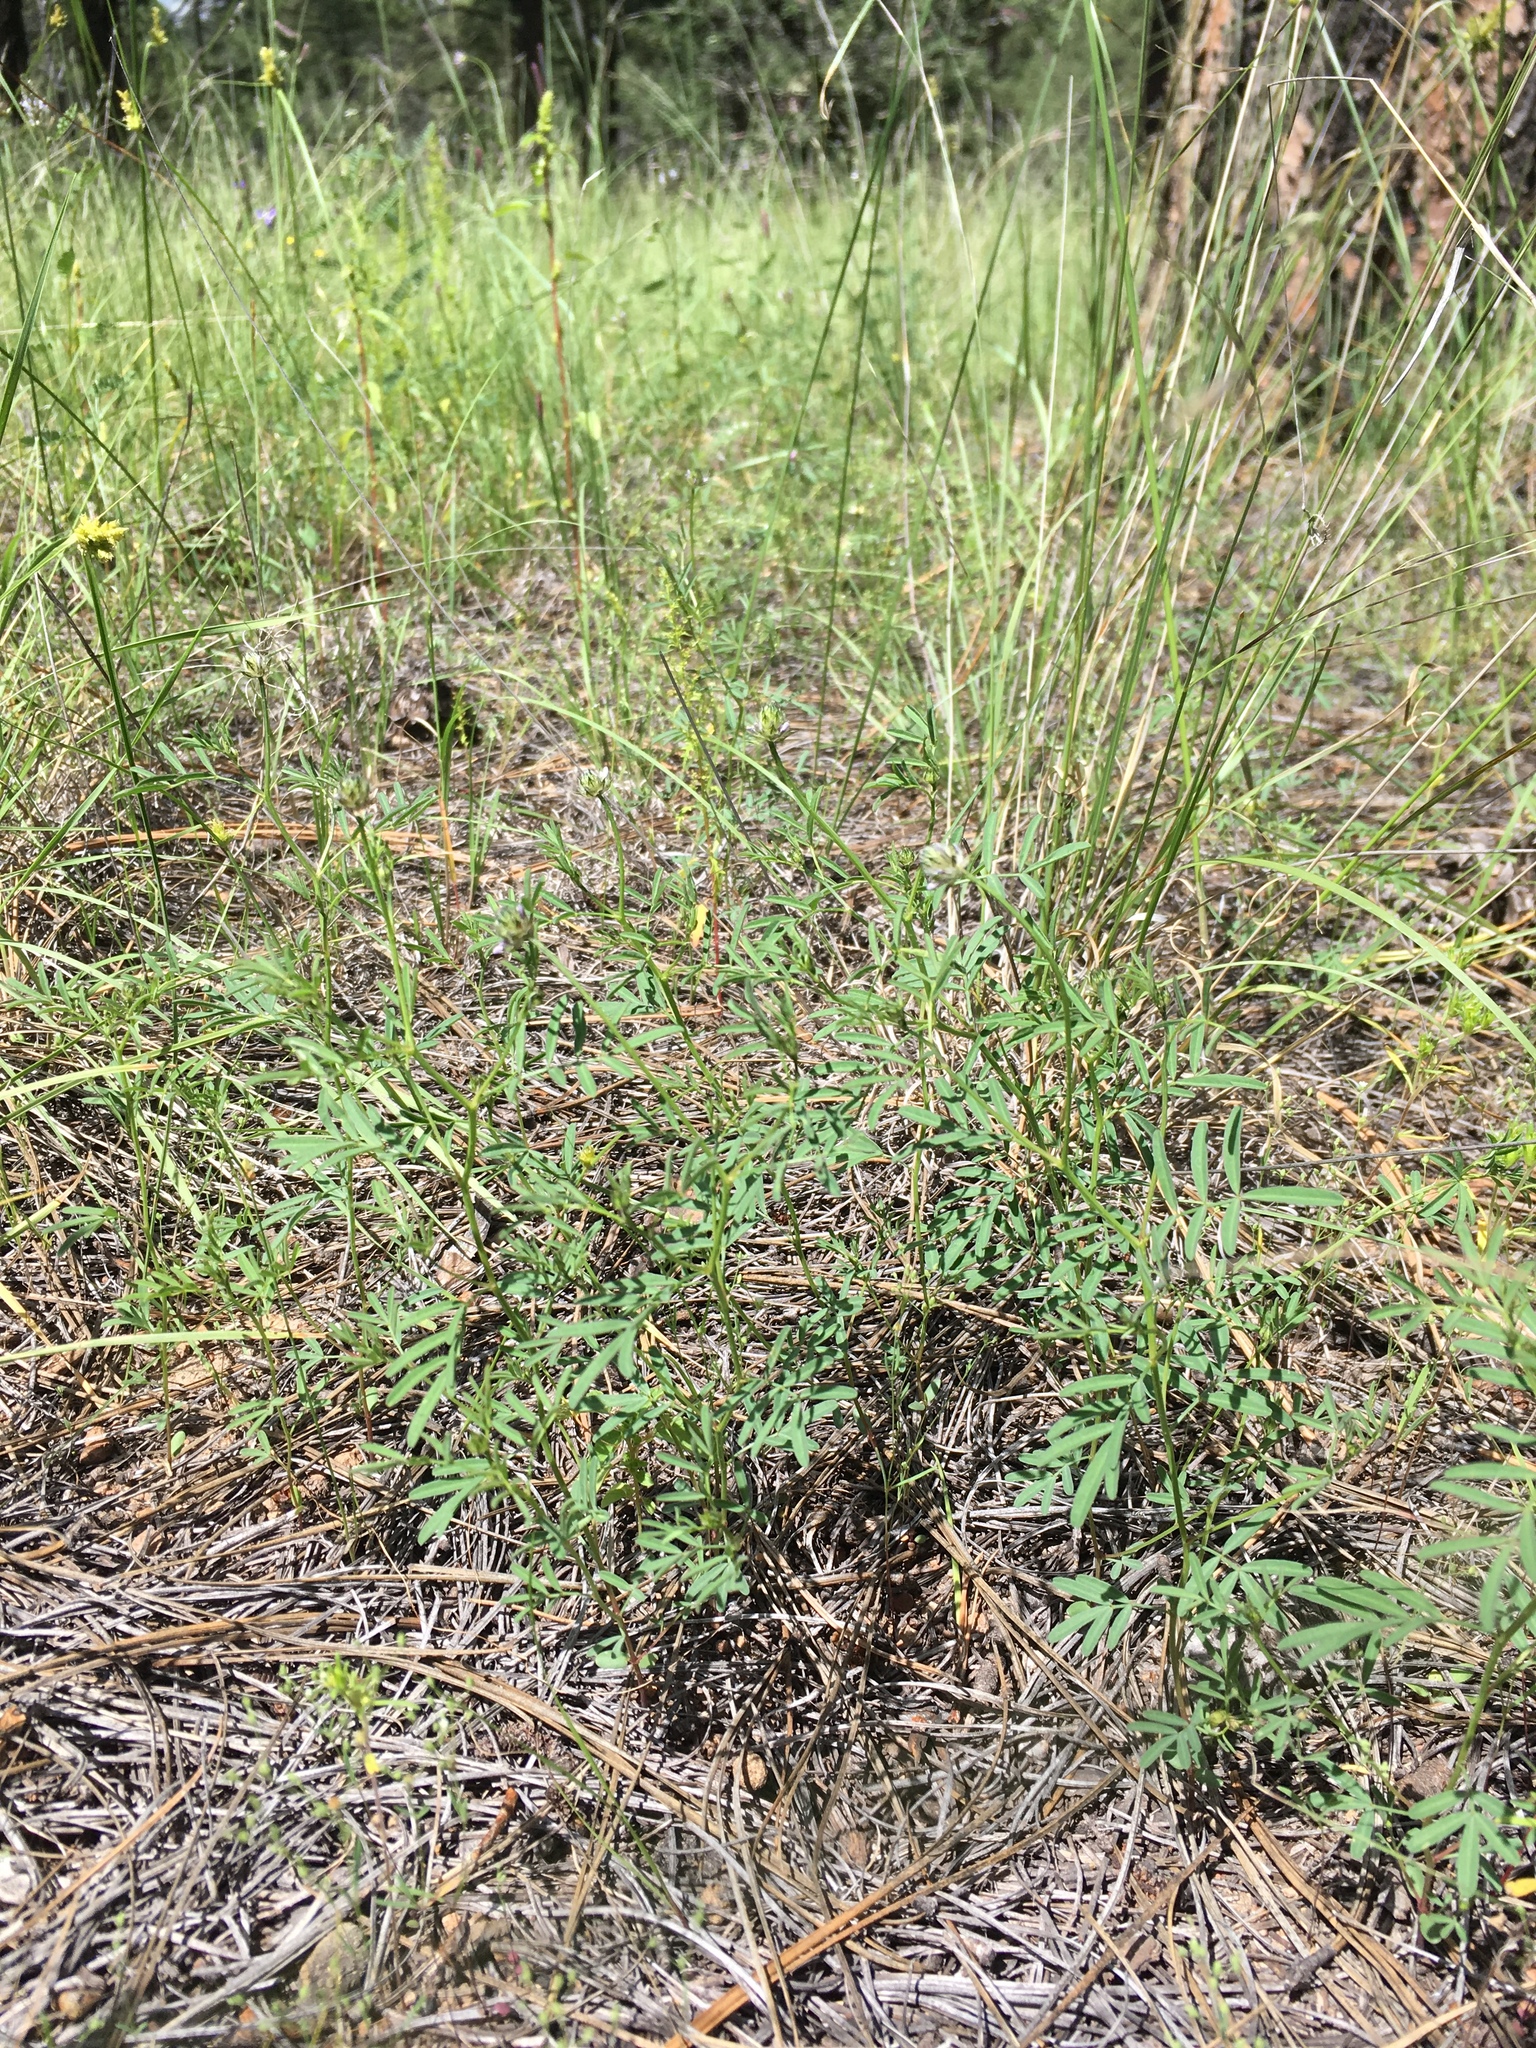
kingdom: Plantae
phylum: Tracheophyta
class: Magnoliopsida
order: Fabales
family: Fabaceae
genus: Dalea
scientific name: Dalea polygonoides
